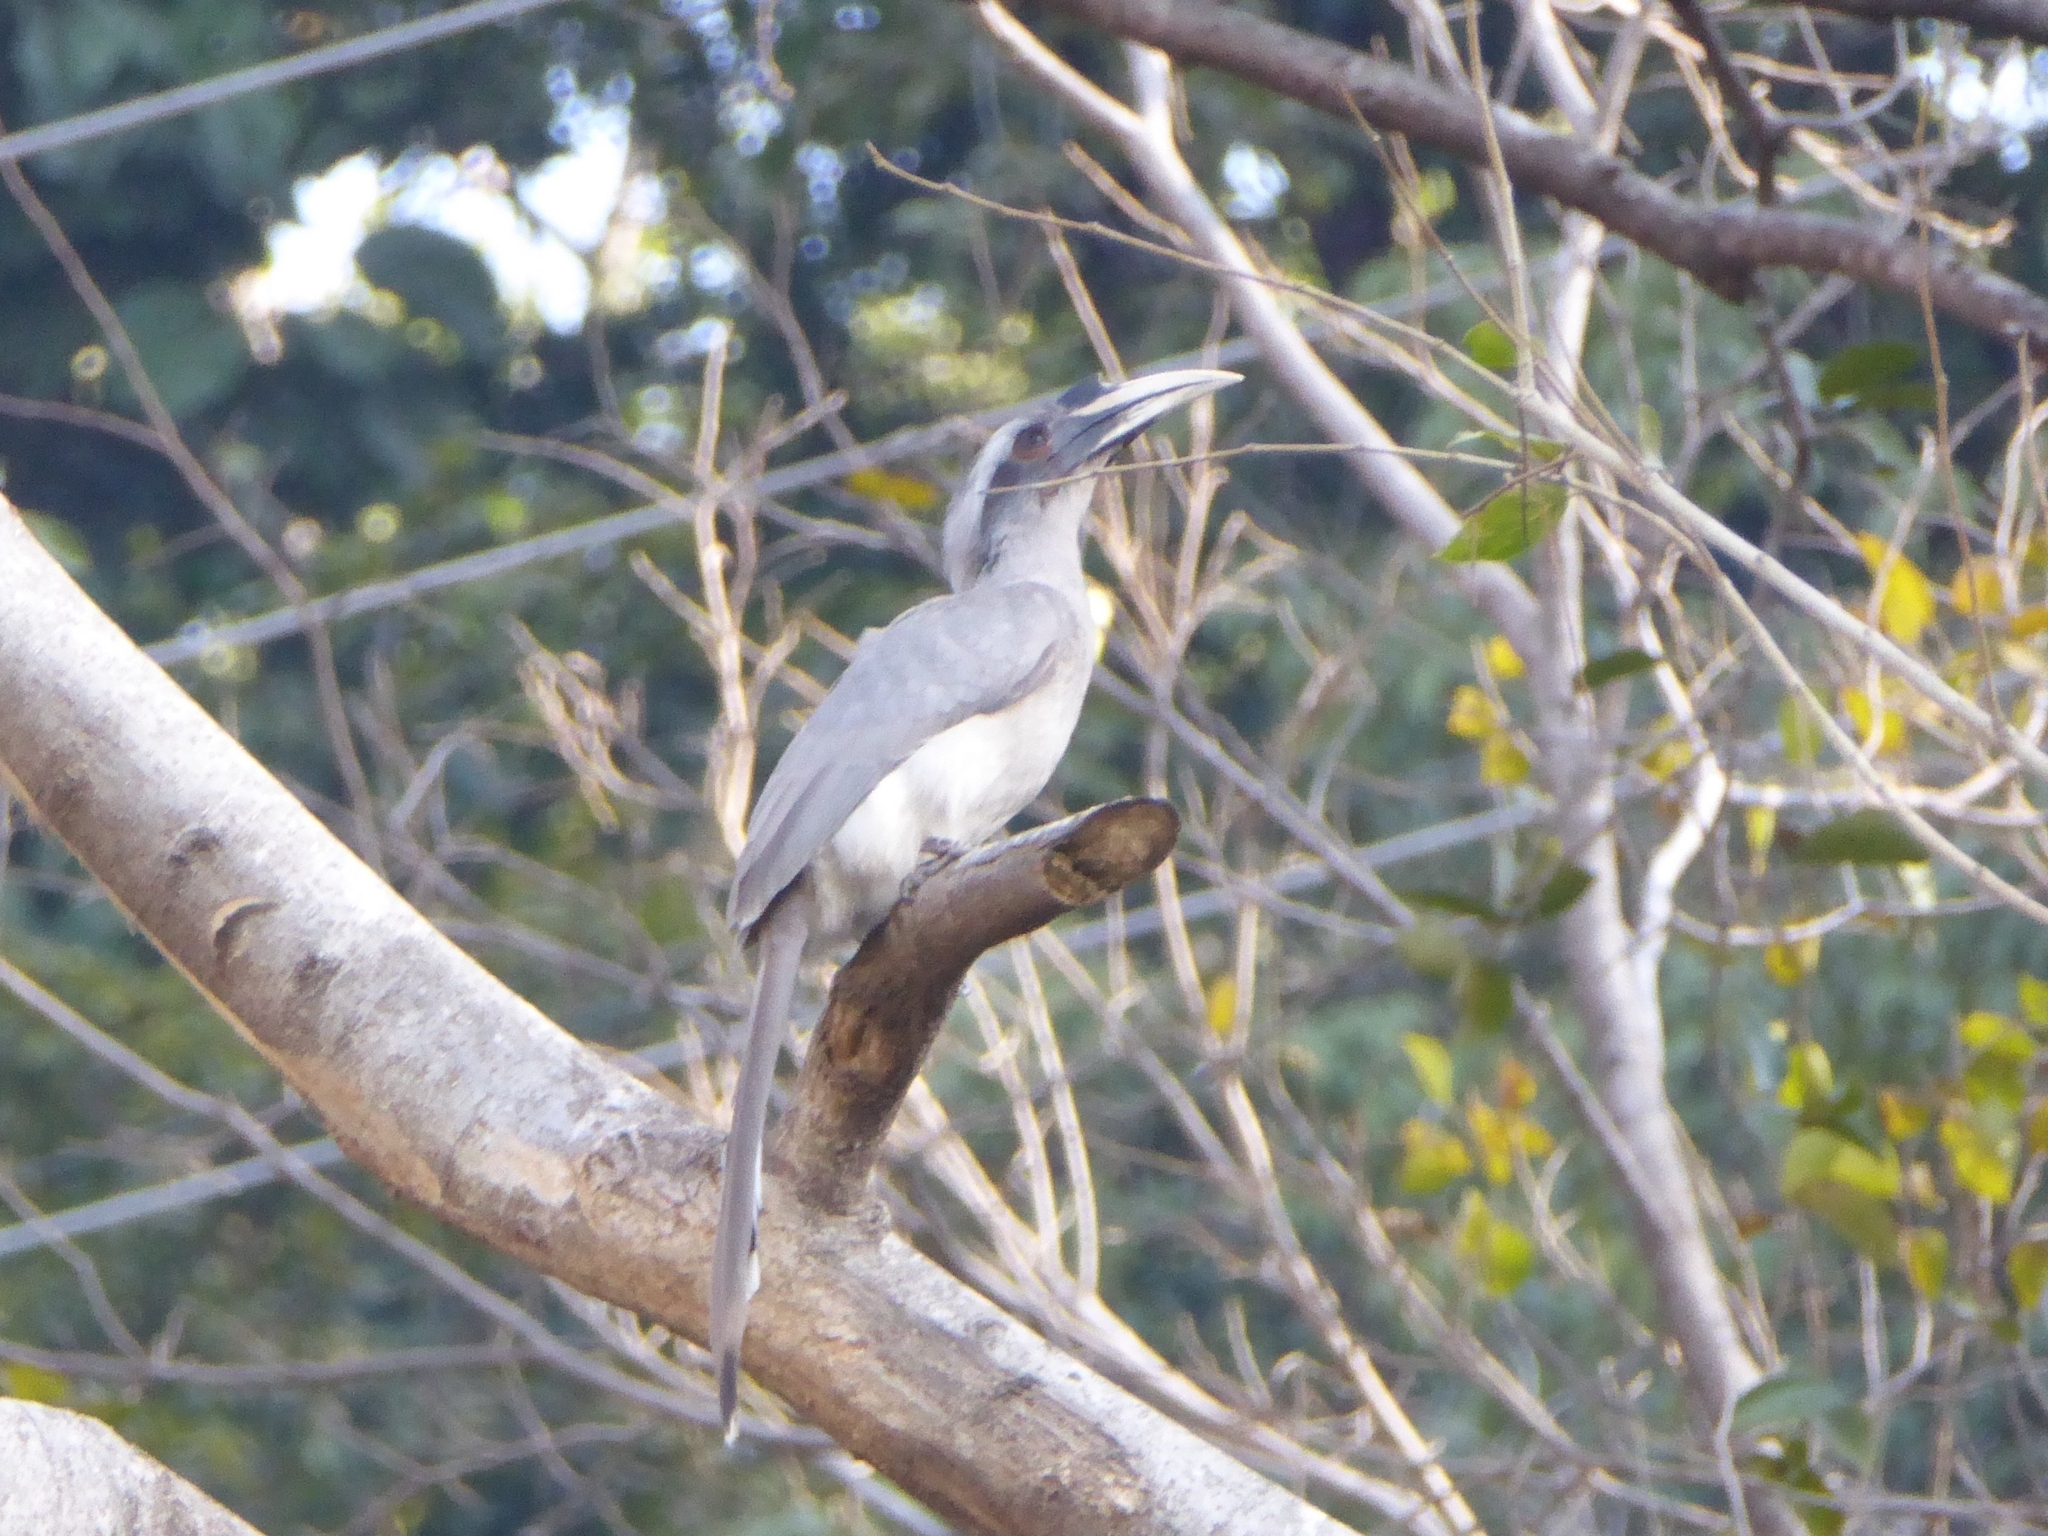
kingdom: Animalia
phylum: Chordata
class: Aves
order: Bucerotiformes
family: Bucerotidae
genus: Ocyceros
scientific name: Ocyceros birostris
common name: Indian grey hornbill
